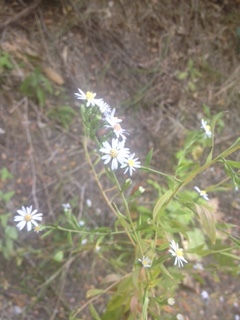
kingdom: Plantae
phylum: Tracheophyta
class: Magnoliopsida
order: Asterales
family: Asteraceae
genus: Symphyotrichum
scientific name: Symphyotrichum drummondii
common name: Drummond's aster
